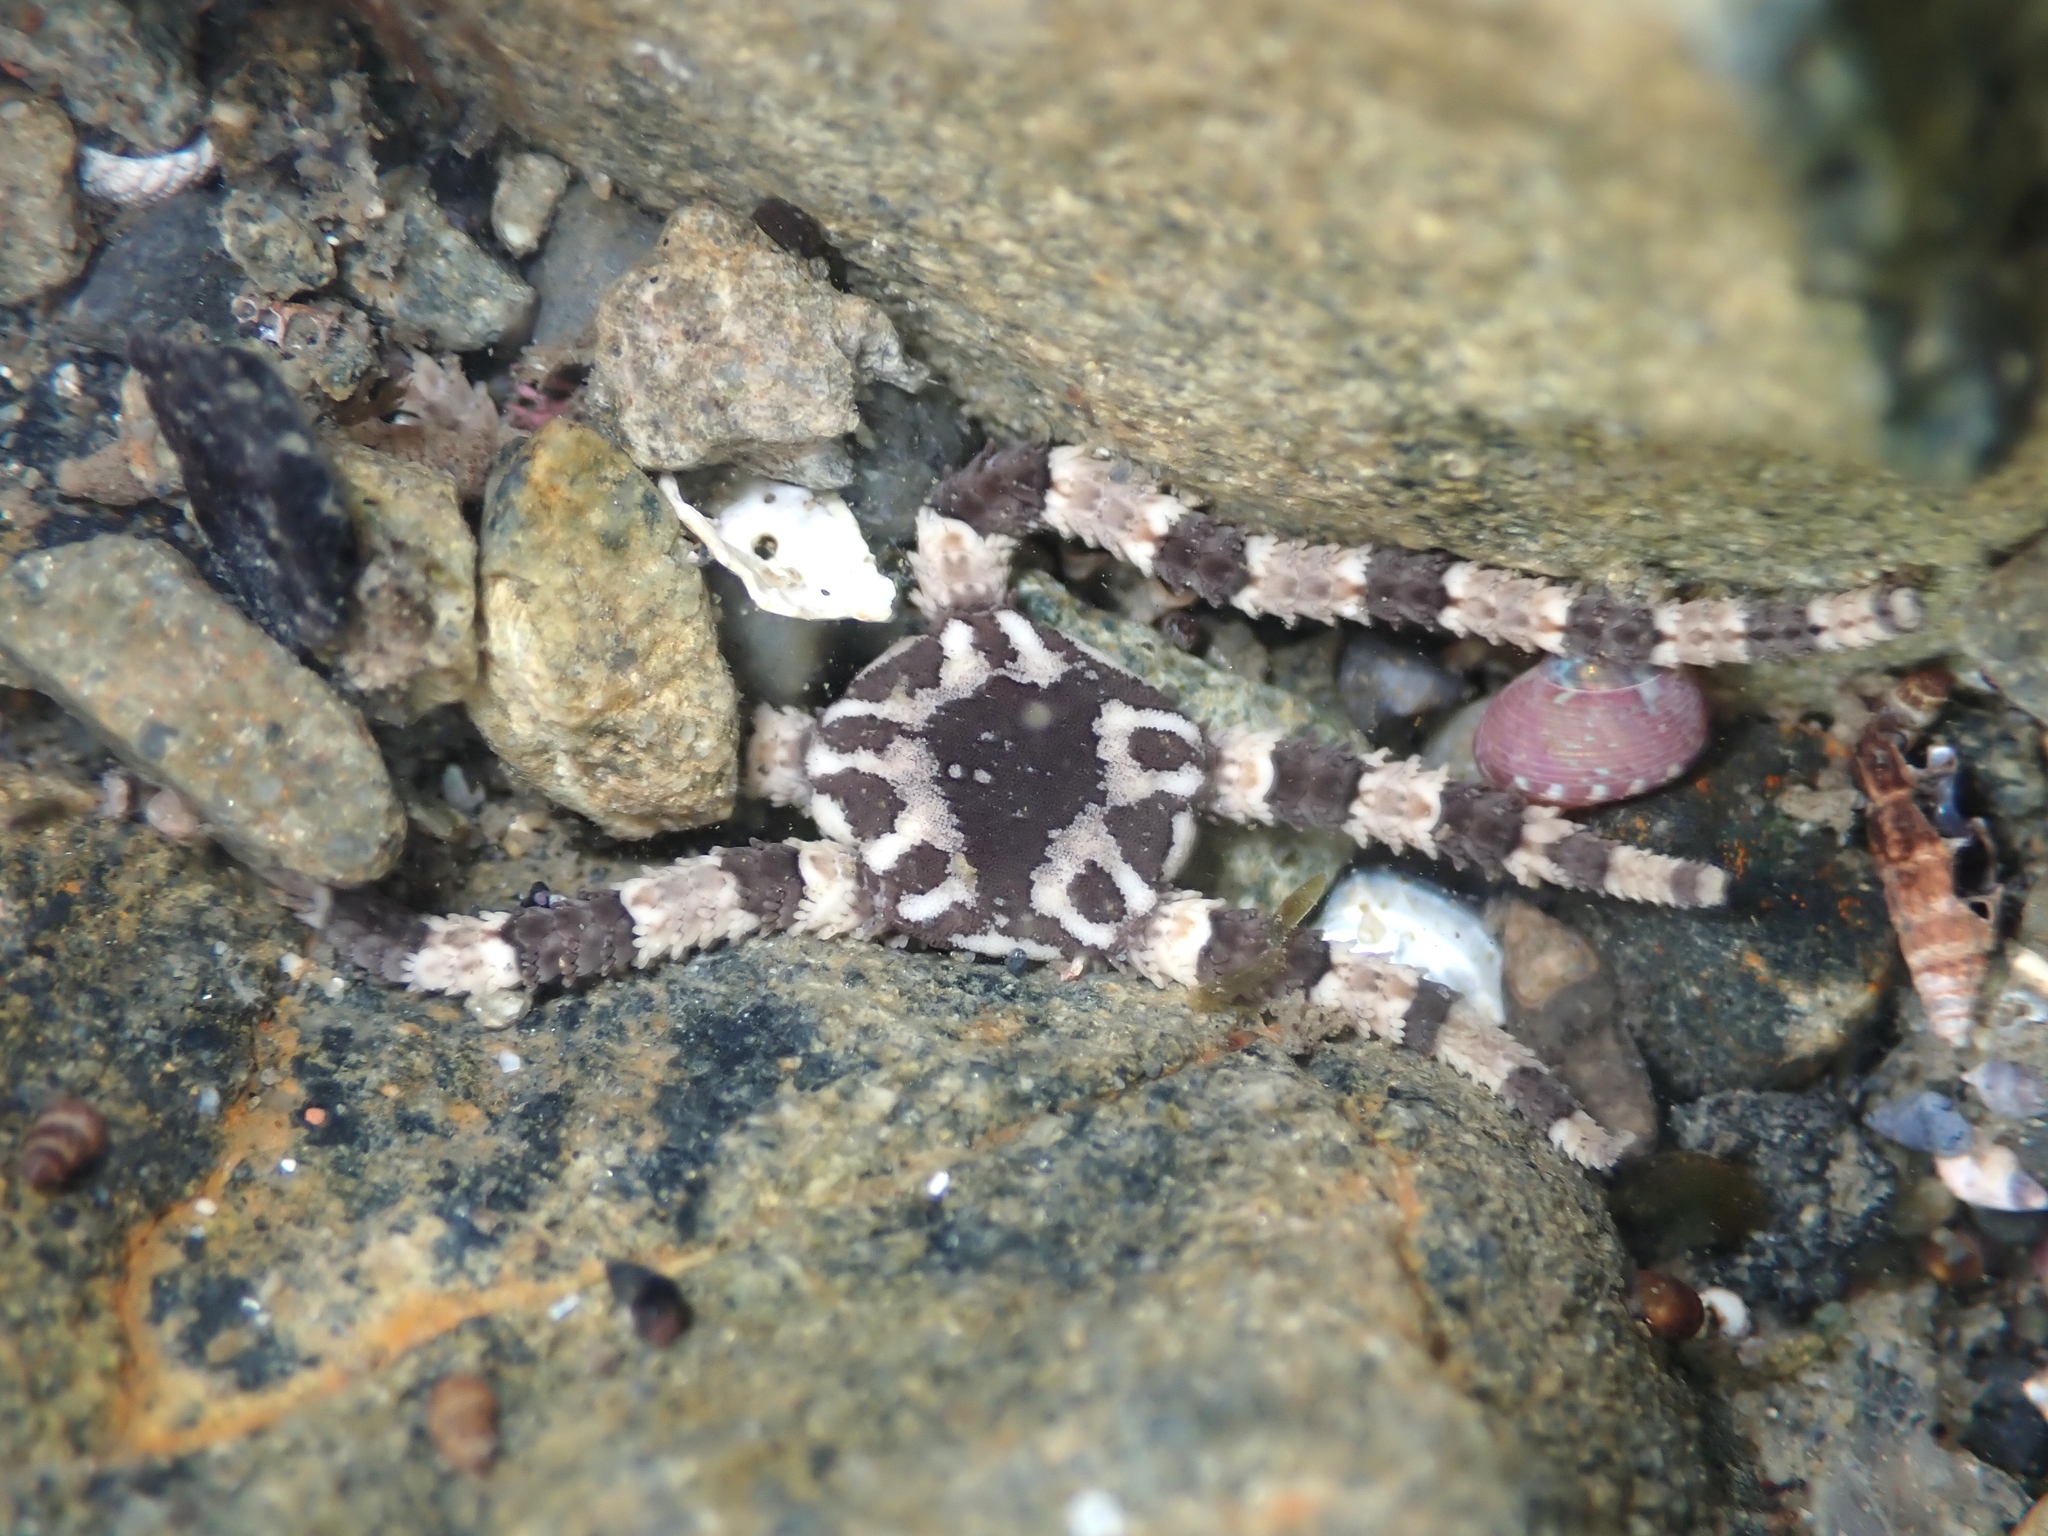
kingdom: Animalia
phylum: Echinodermata
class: Ophiuroidea
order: Ophiacanthida
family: Ophiopezidae
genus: Ophiopeza
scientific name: Ophiopeza cylindrica
